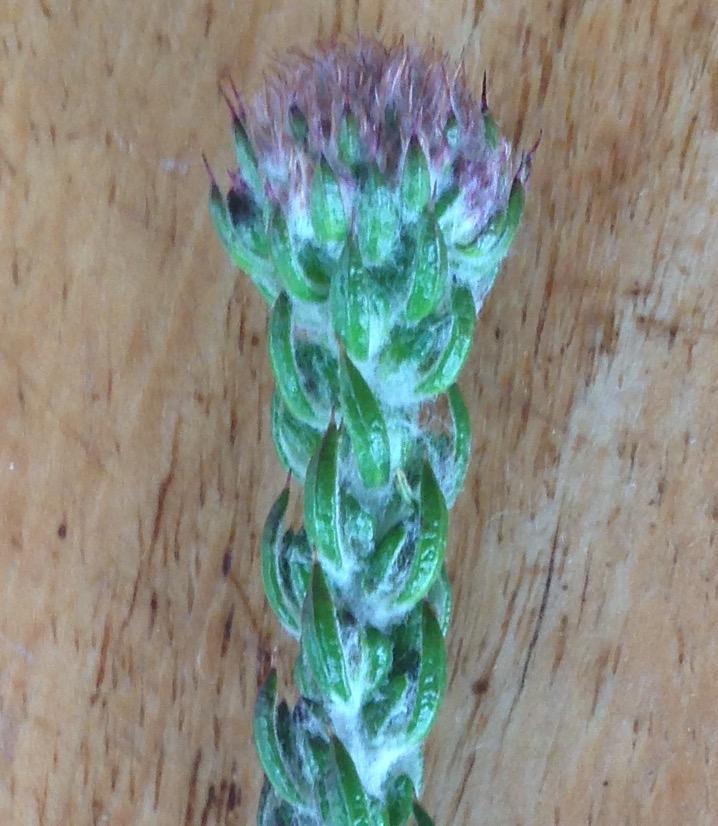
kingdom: Plantae
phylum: Tracheophyta
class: Magnoliopsida
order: Asterales
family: Asteraceae
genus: Metalasia
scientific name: Metalasia pungens
